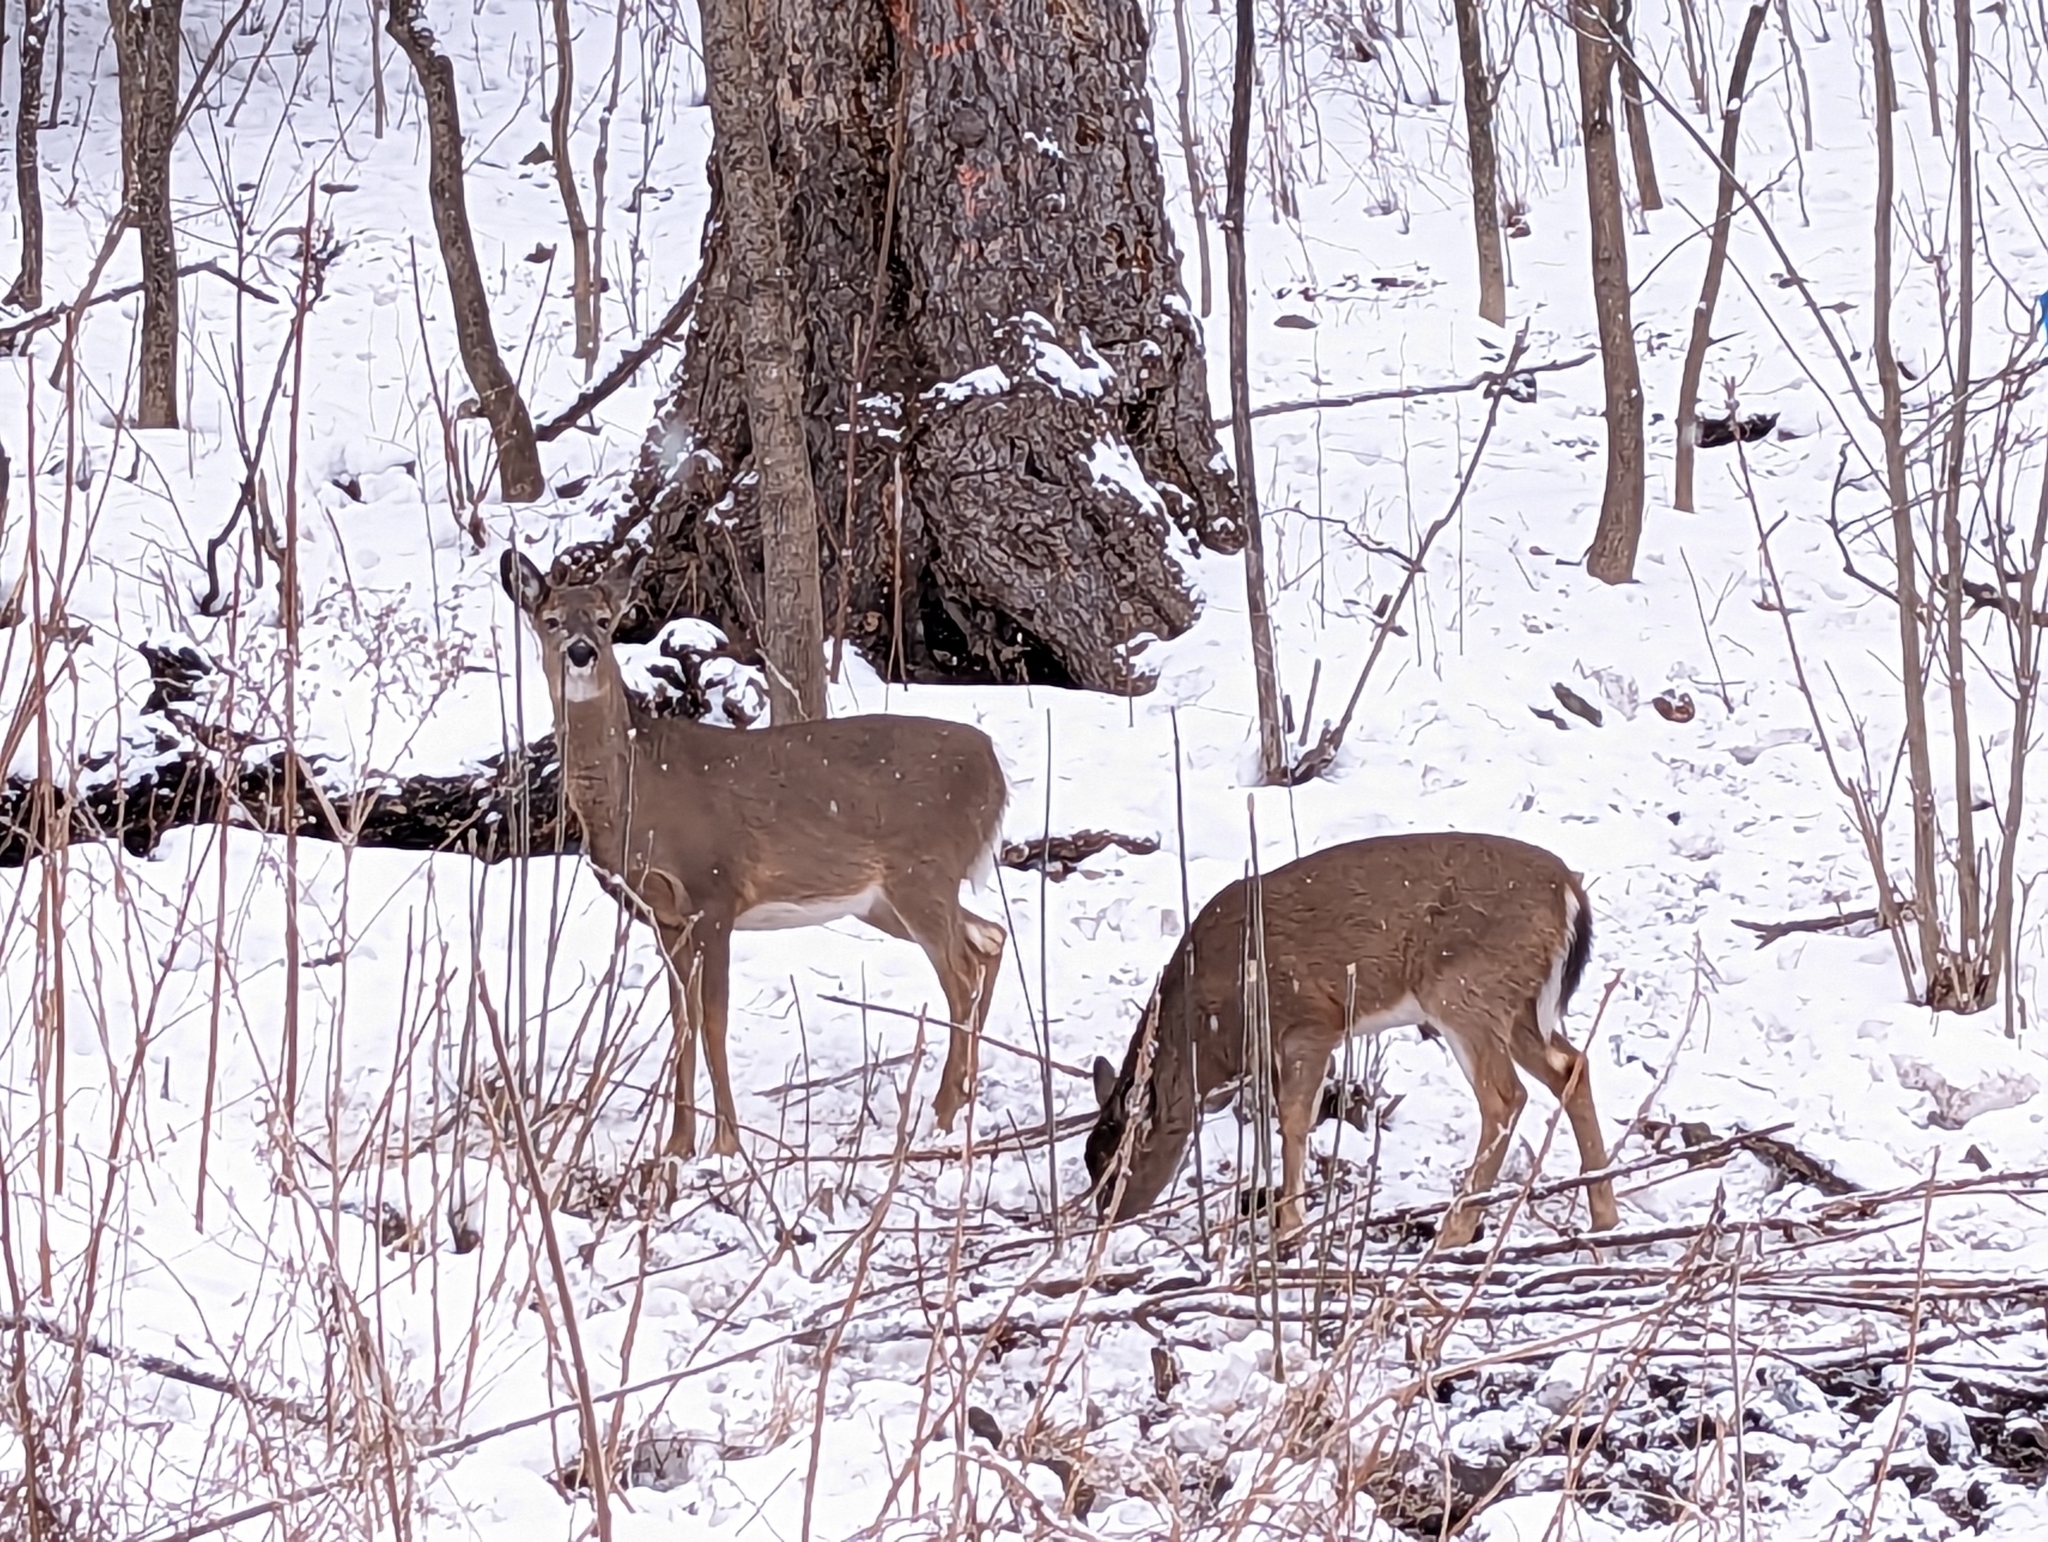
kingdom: Animalia
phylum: Chordata
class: Mammalia
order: Artiodactyla
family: Cervidae
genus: Odocoileus
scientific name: Odocoileus virginianus
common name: White-tailed deer
